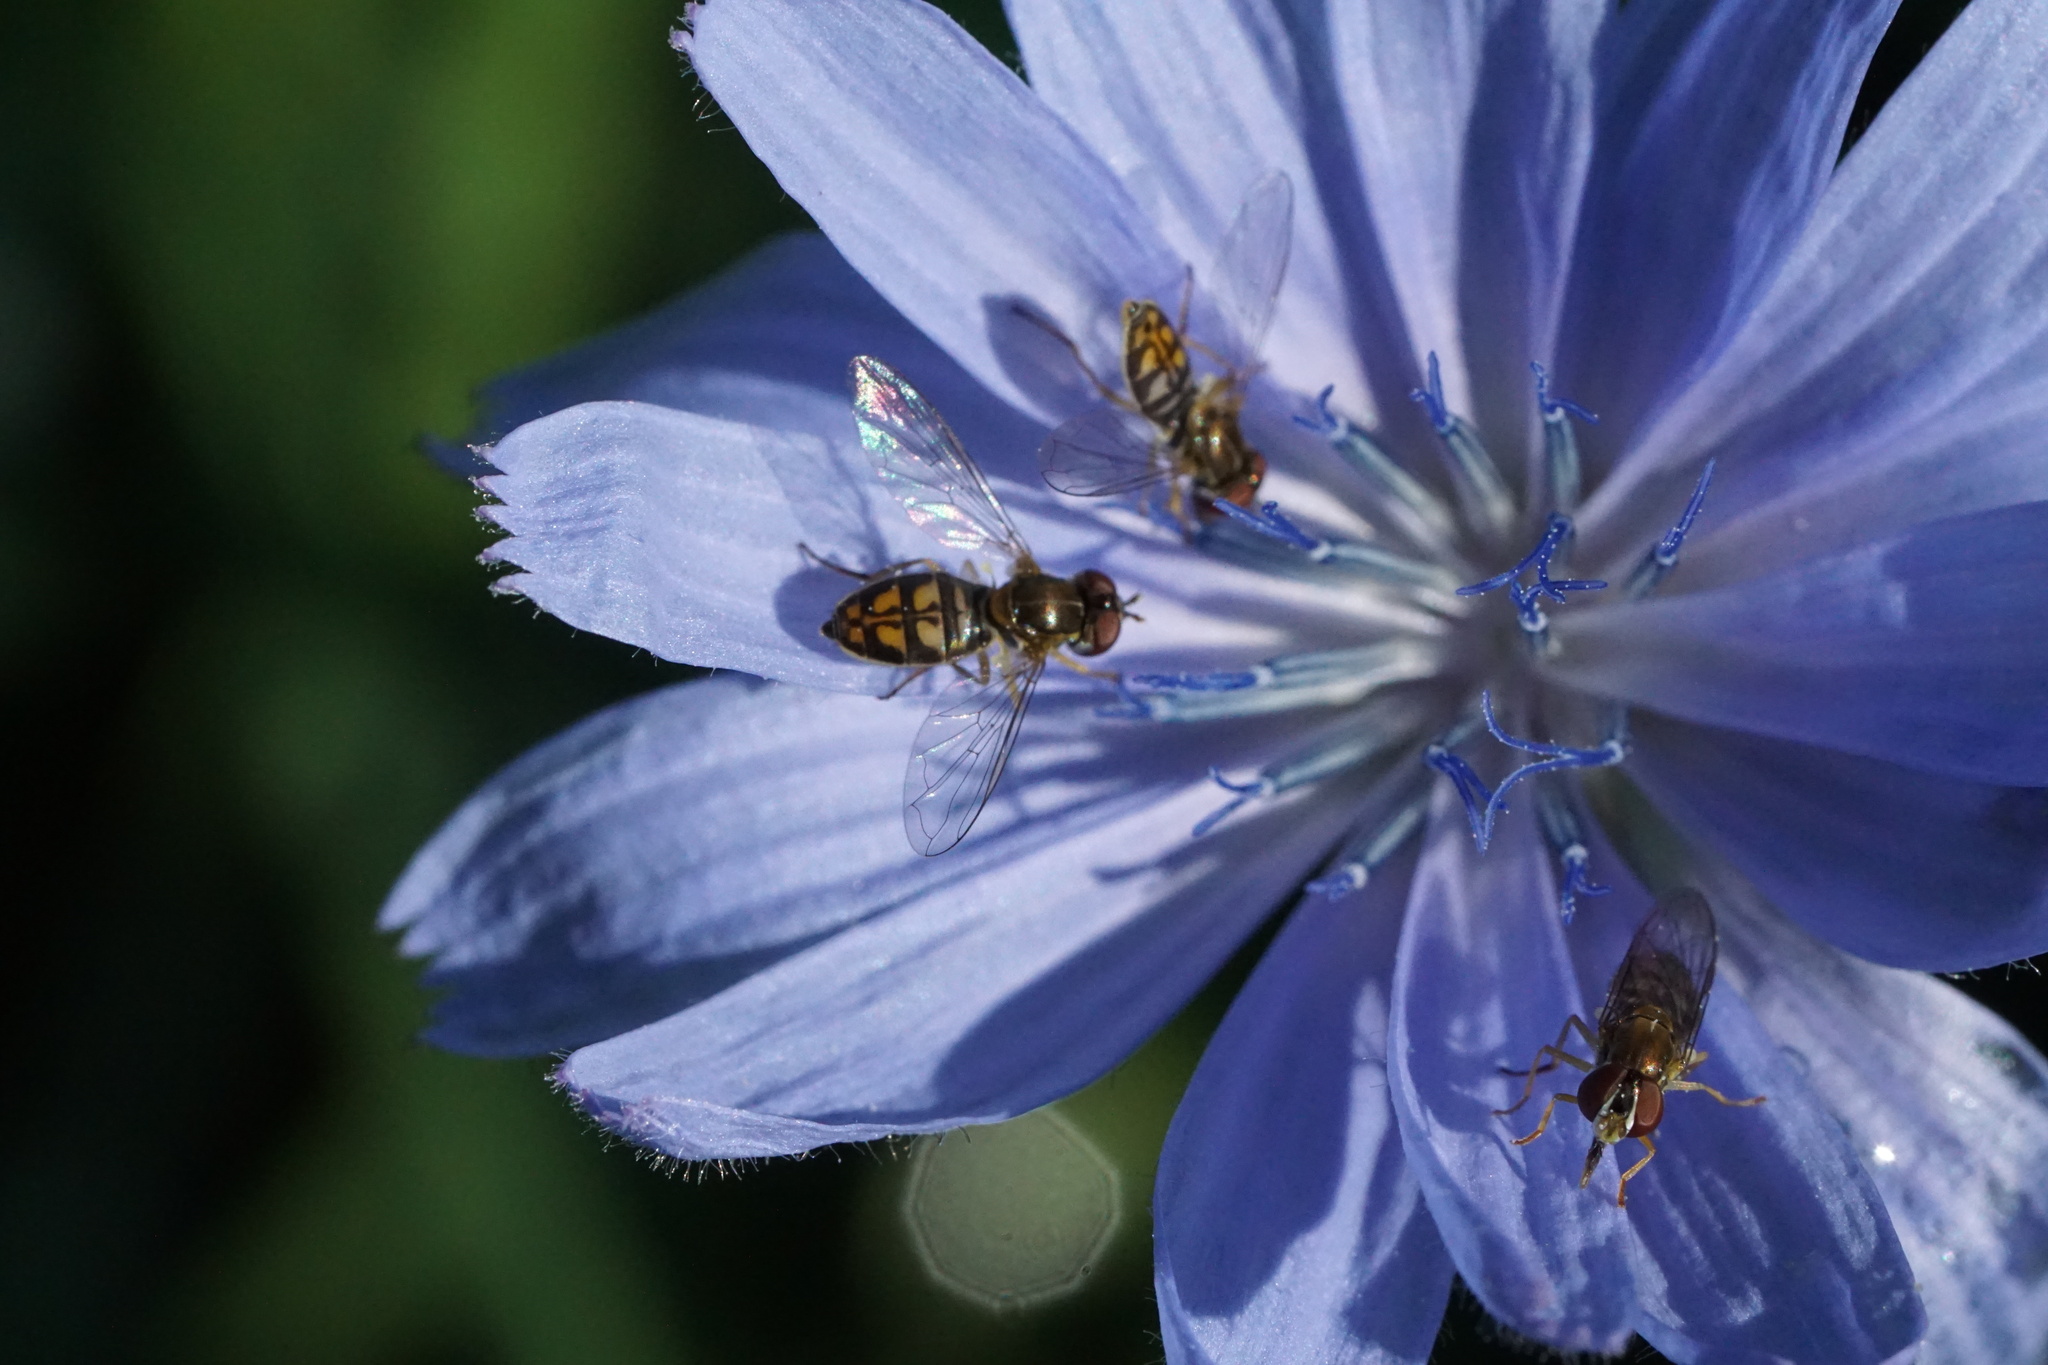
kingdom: Animalia
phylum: Arthropoda
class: Insecta
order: Diptera
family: Syrphidae
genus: Toxomerus
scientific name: Toxomerus marginatus
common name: Syrphid fly
